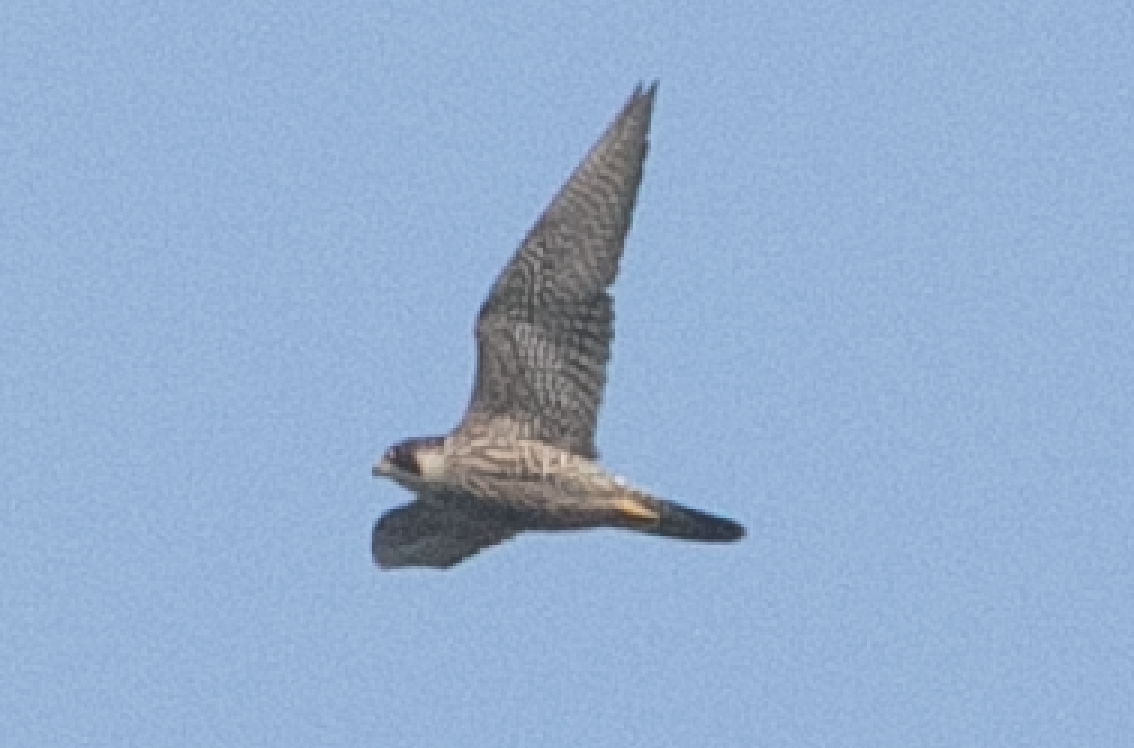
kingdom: Animalia
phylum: Chordata
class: Aves
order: Falconiformes
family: Falconidae
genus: Falco
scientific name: Falco peregrinus
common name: Peregrine falcon
